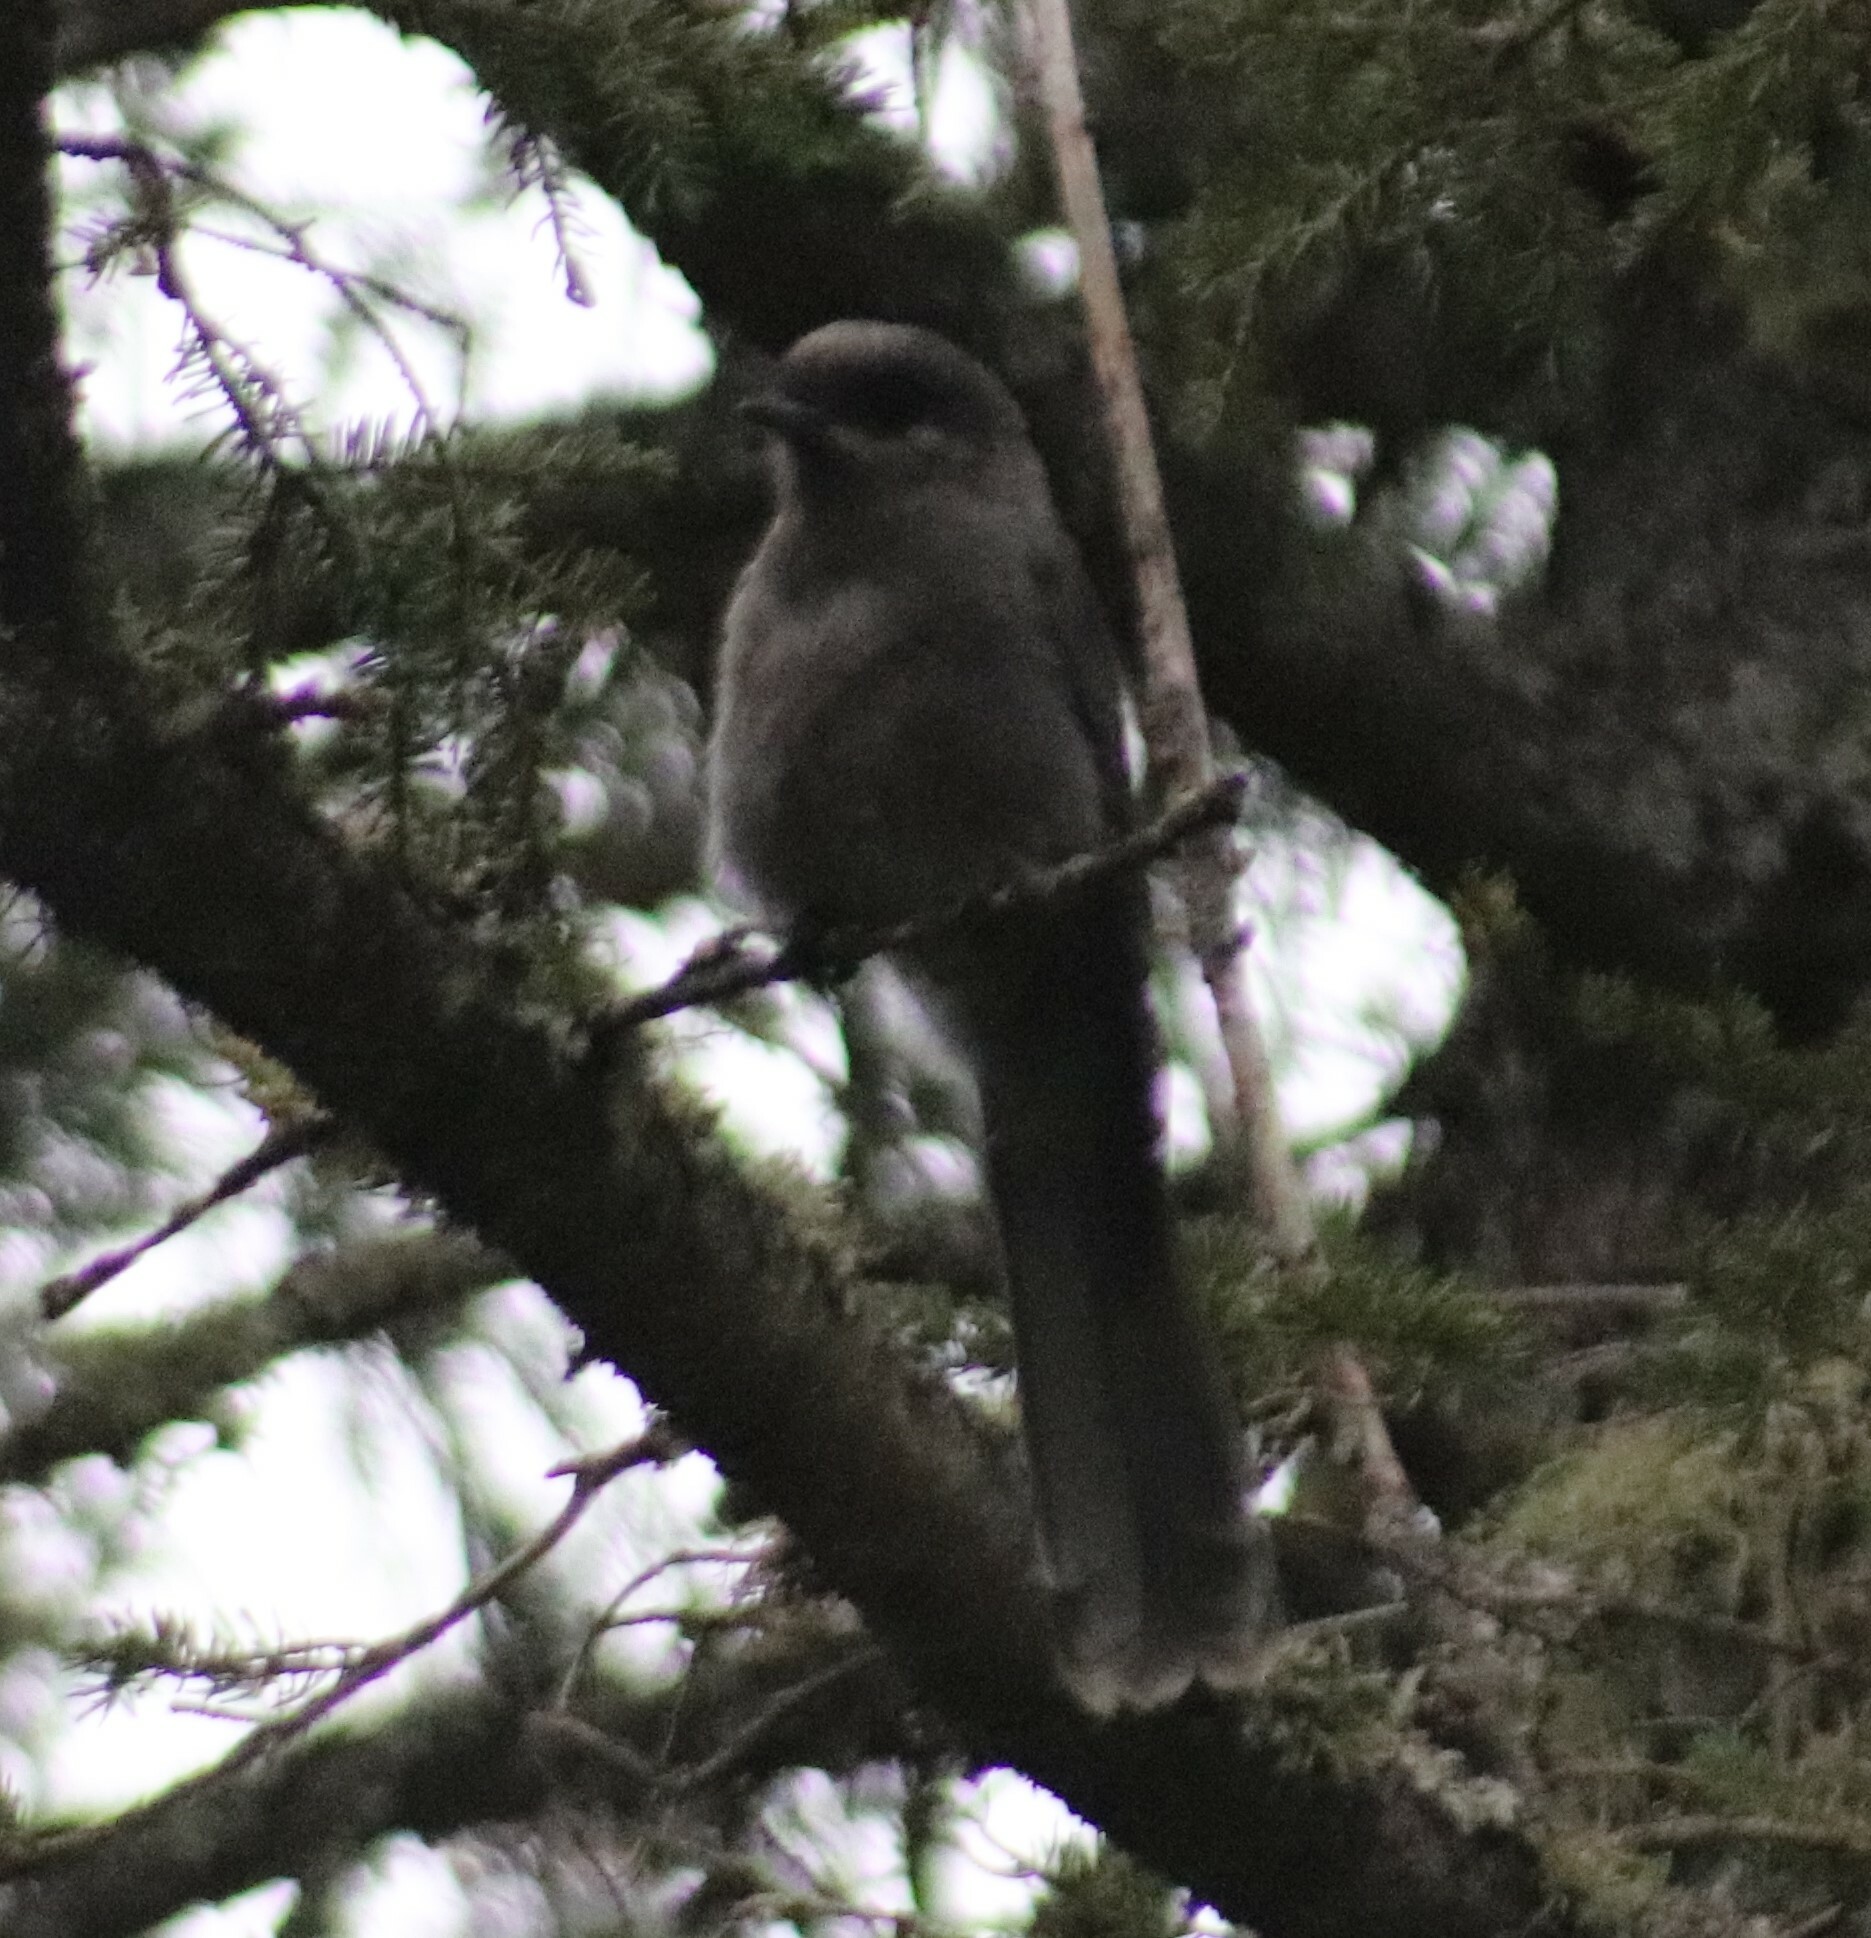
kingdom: Animalia
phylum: Chordata
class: Aves
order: Passeriformes
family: Corvidae
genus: Perisoreus
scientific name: Perisoreus canadensis
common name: Gray jay
